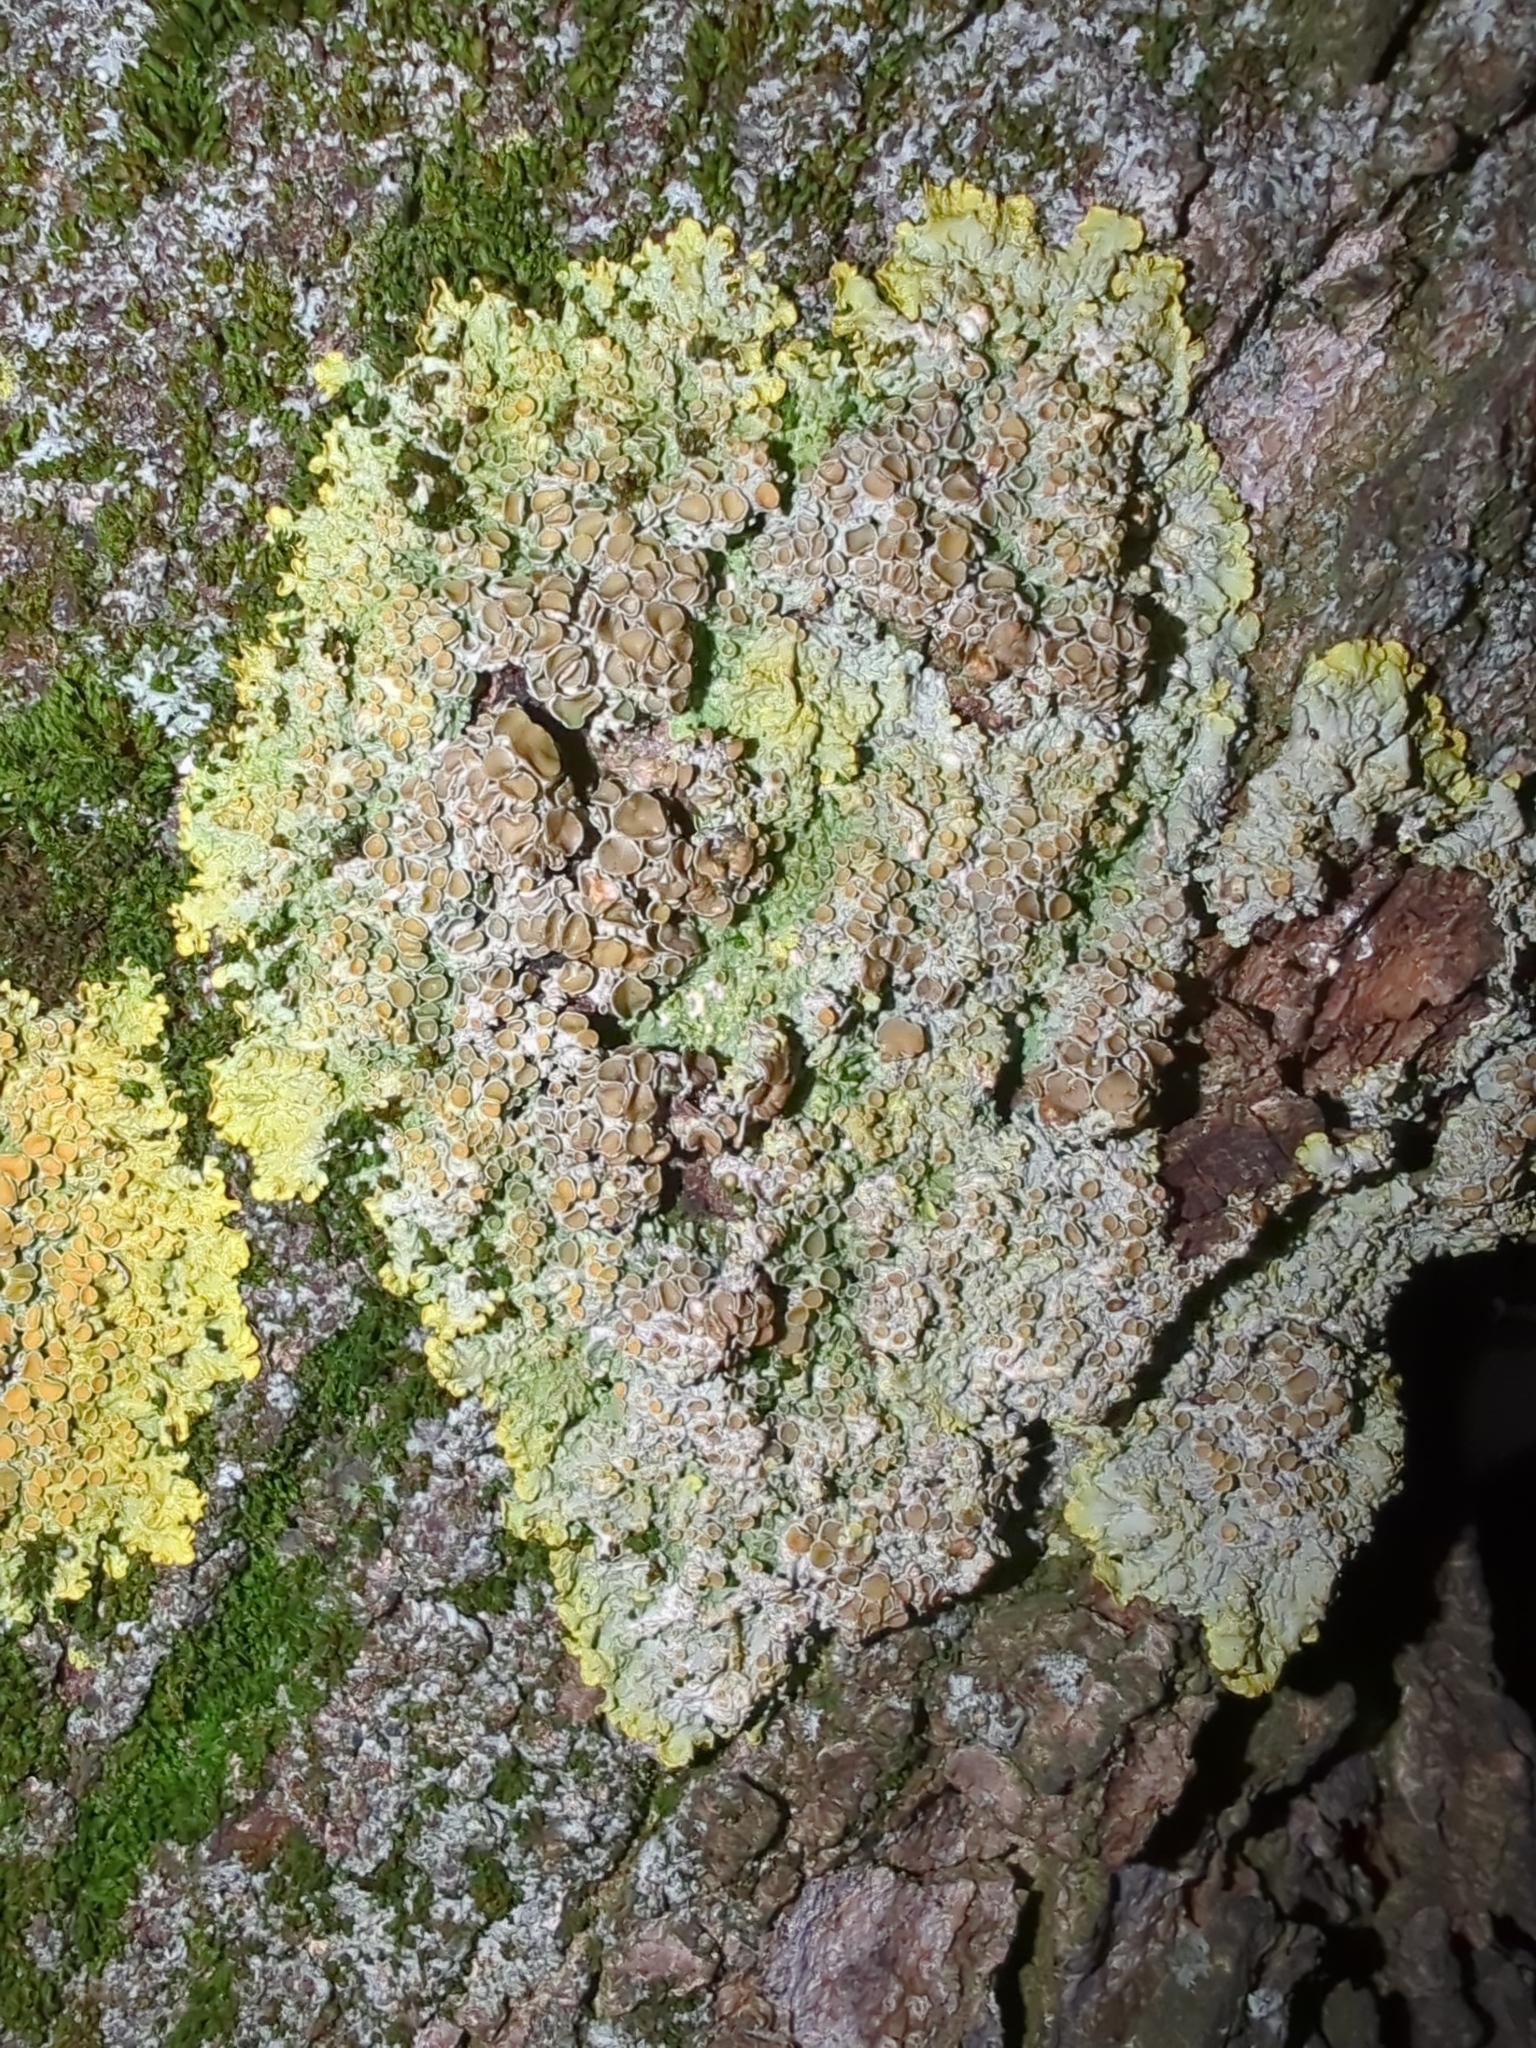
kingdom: Fungi
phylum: Ascomycota
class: Lecanoromycetes
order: Teloschistales
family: Teloschistaceae
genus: Xanthoria
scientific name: Xanthoria parietina
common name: Common orange lichen
